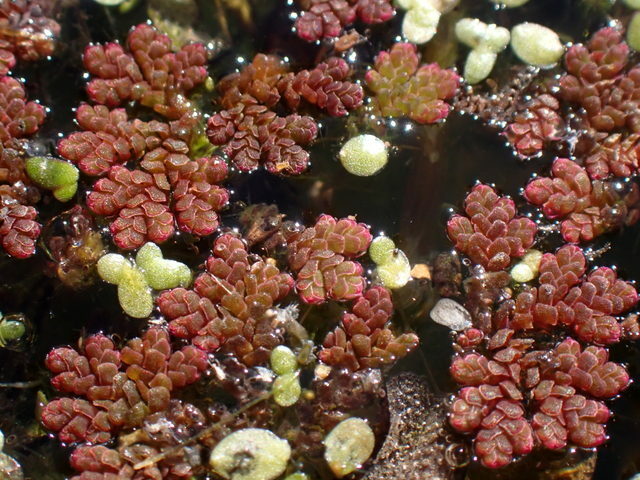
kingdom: Plantae
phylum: Tracheophyta
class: Polypodiopsida
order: Salviniales
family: Salviniaceae
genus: Azolla
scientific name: Azolla filiculoides
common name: Water fern
